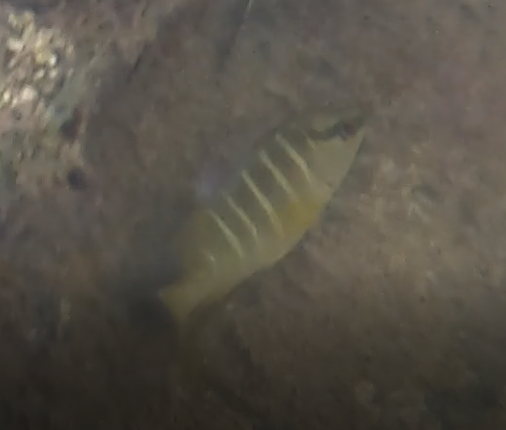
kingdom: Animalia
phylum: Chordata
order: Perciformes
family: Lutjanidae
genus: Lutjanus
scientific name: Lutjanus apodus
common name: Schoolmaster
